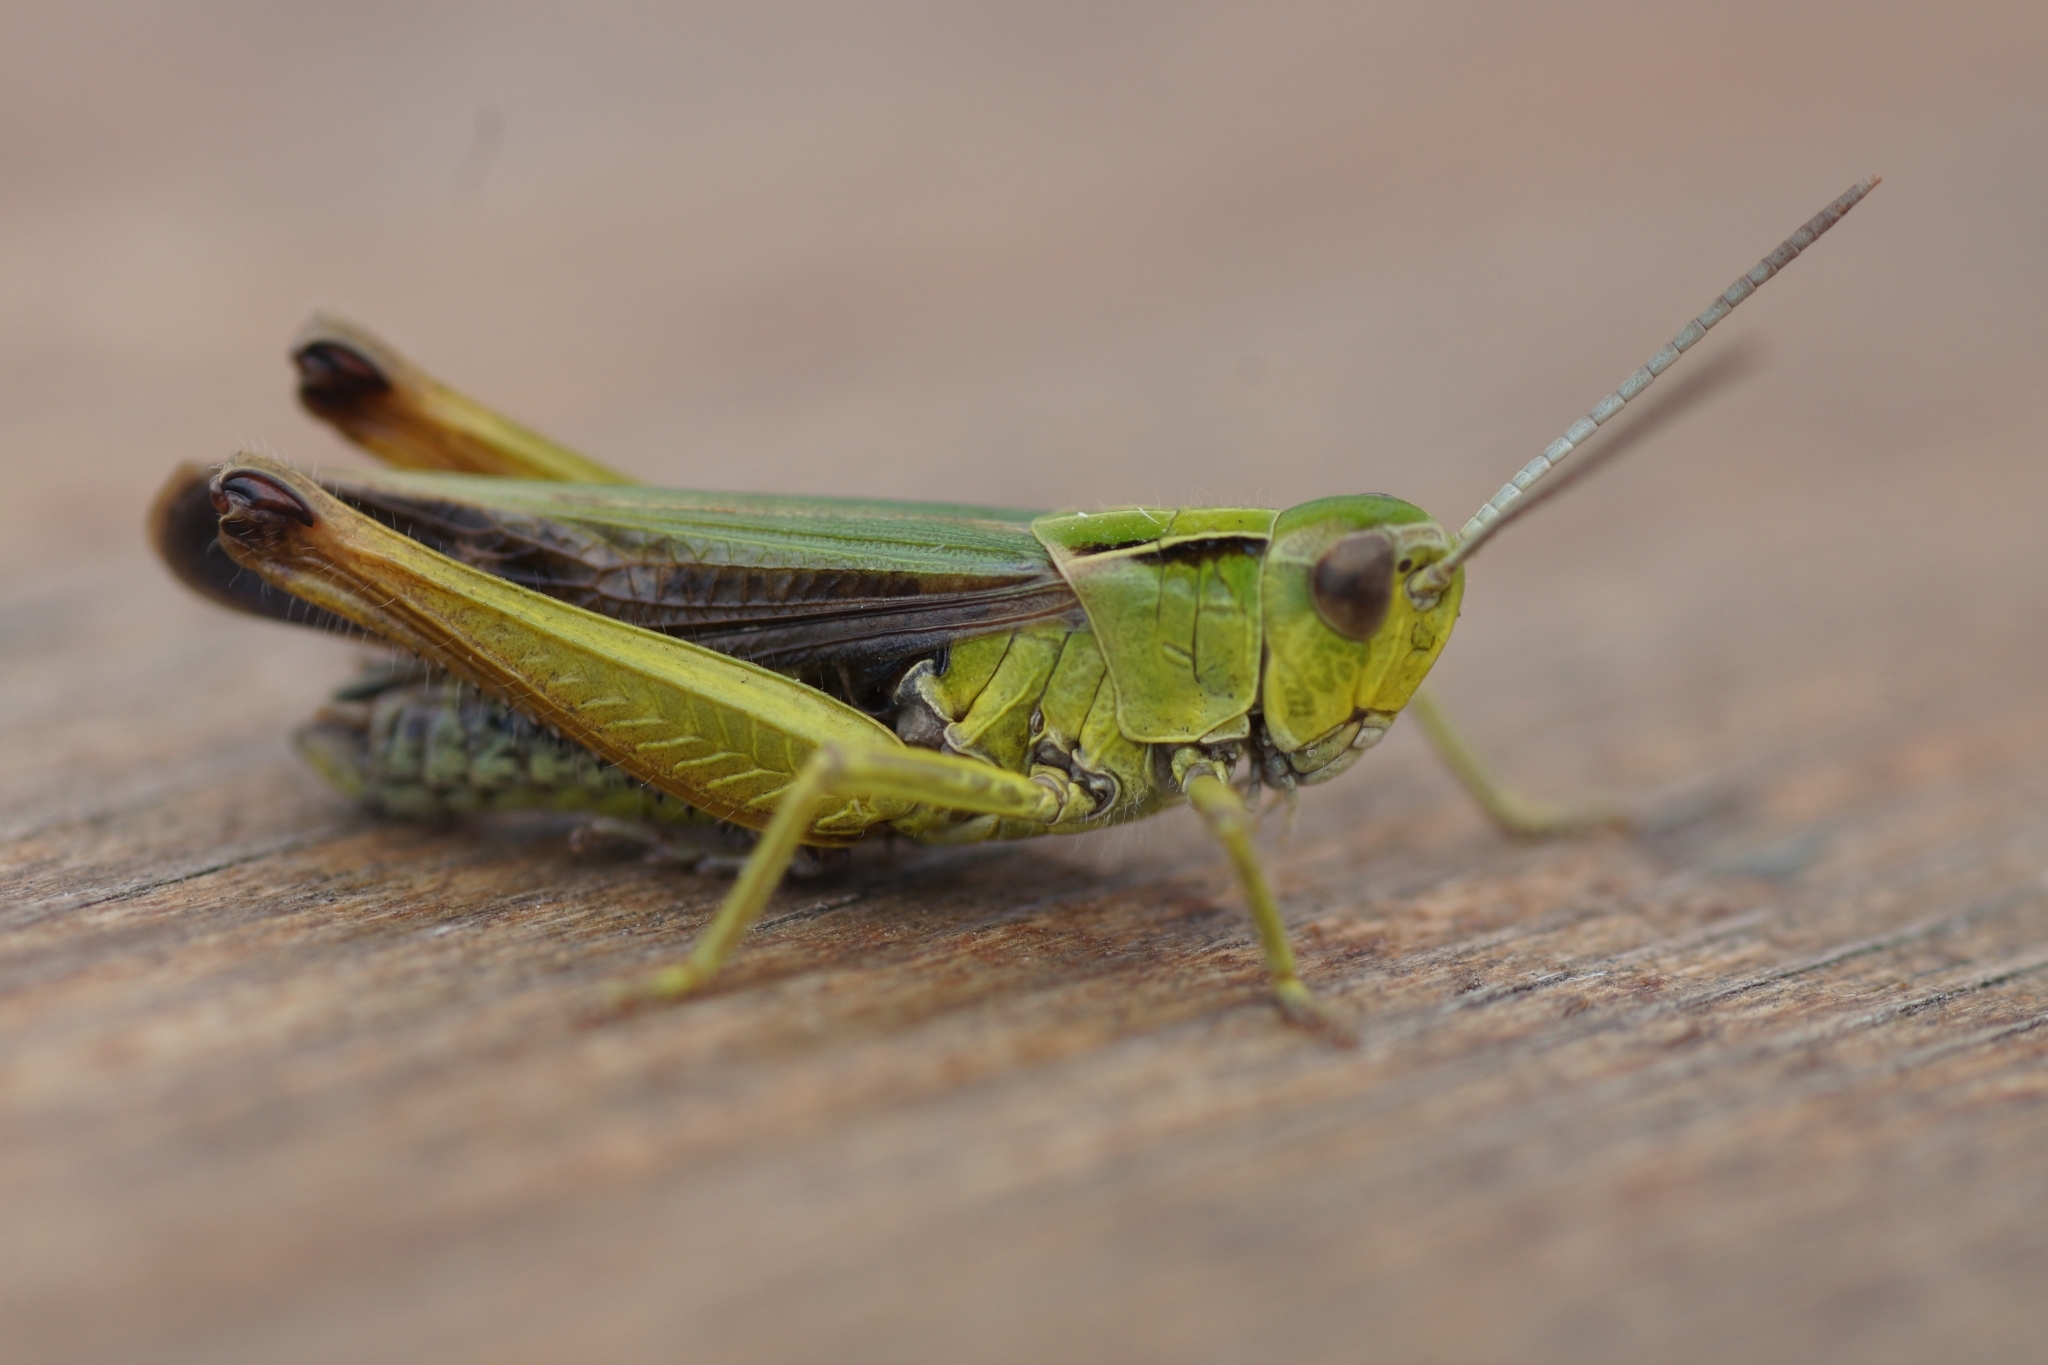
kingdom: Animalia
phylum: Arthropoda
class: Insecta
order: Orthoptera
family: Acrididae
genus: Omocestus
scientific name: Omocestus viridulus
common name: Common green grasshopper
